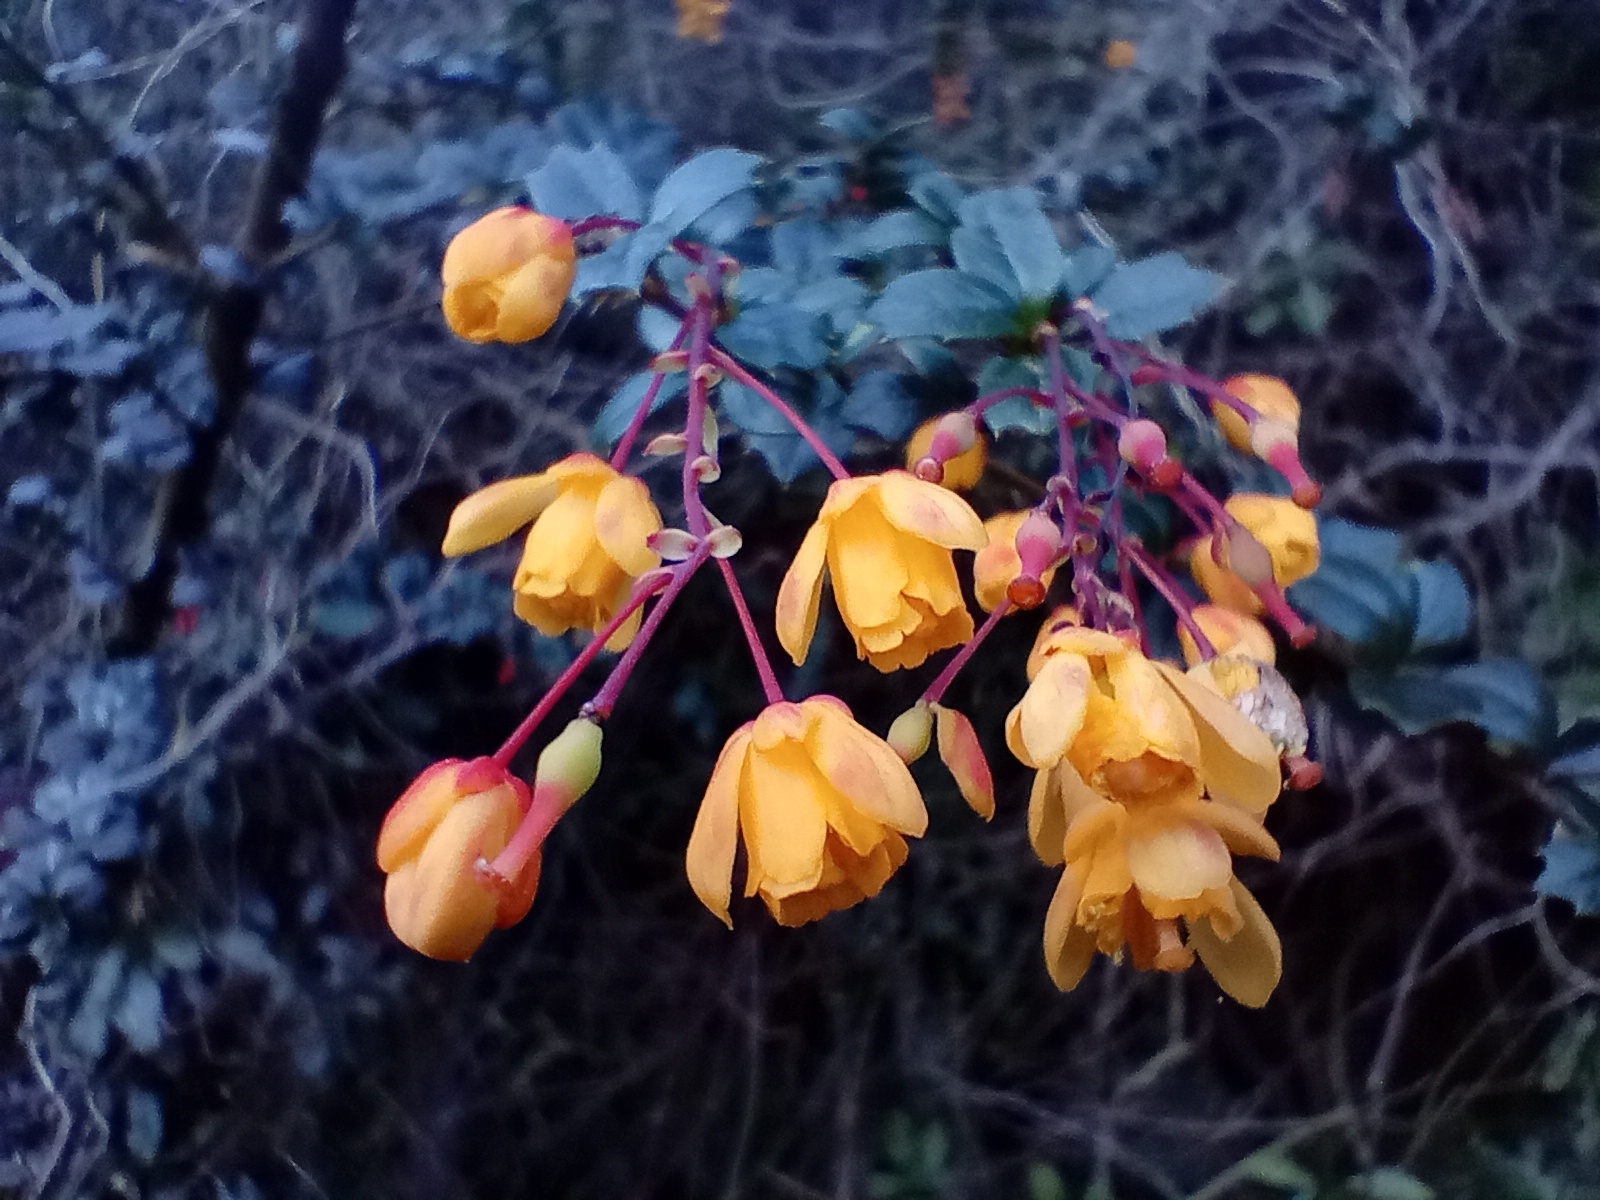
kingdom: Plantae
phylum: Tracheophyta
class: Magnoliopsida
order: Ranunculales
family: Berberidaceae
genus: Berberis
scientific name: Berberis darwinii
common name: Darwin's barberry
